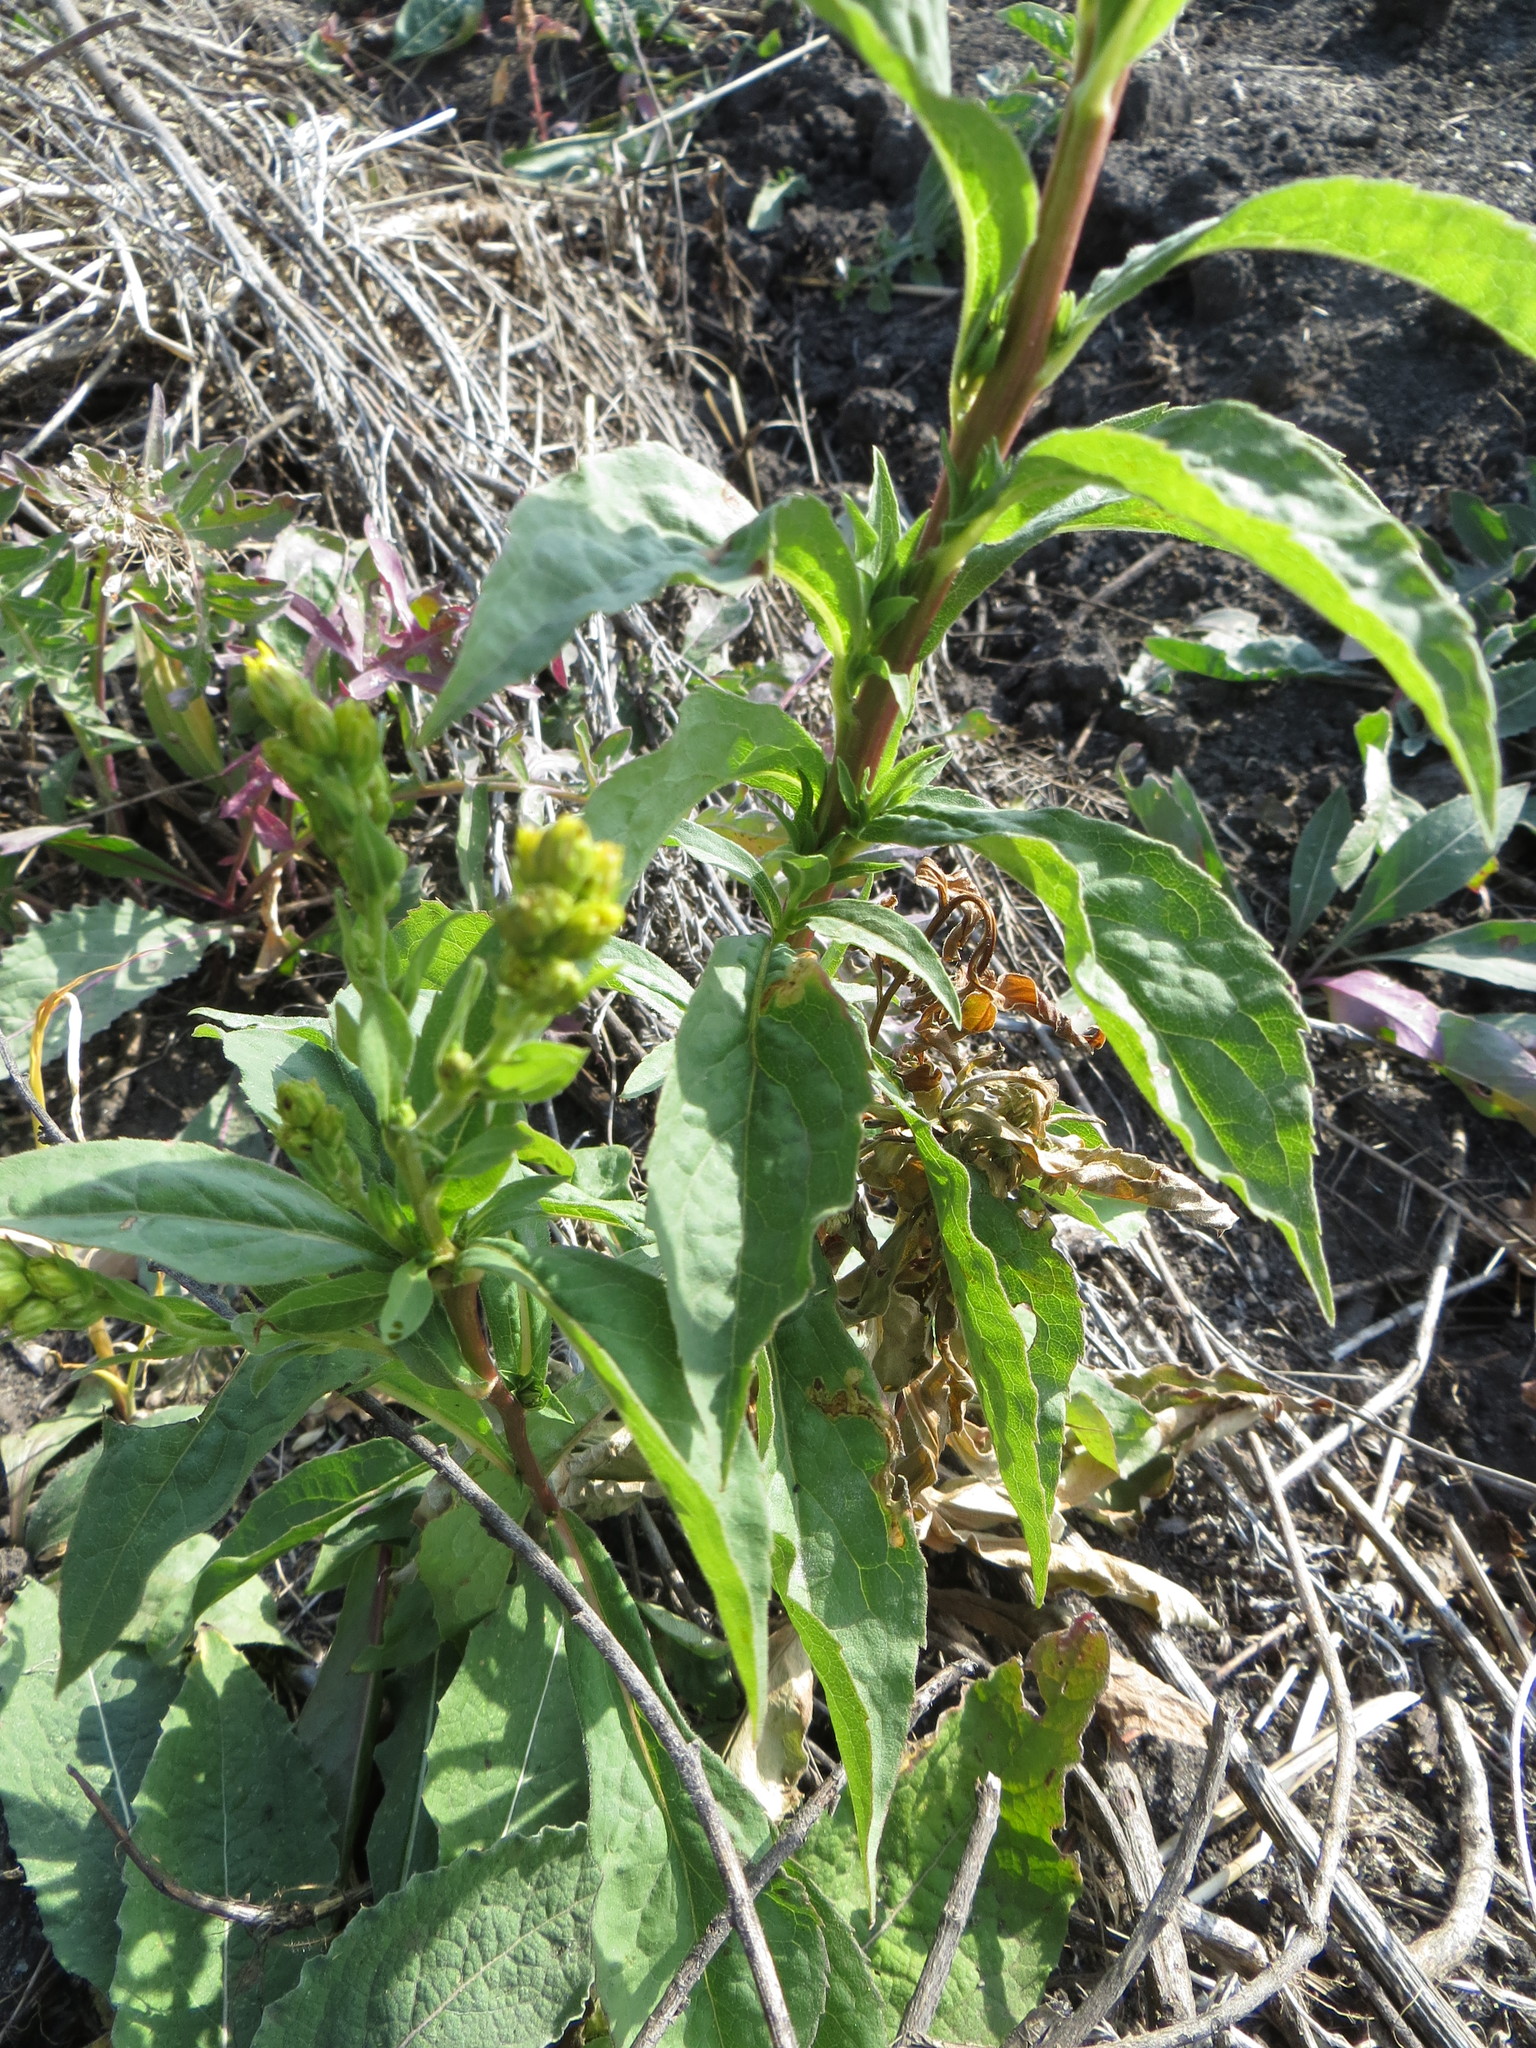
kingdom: Plantae
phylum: Tracheophyta
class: Magnoliopsida
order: Asterales
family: Asteraceae
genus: Solidago
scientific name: Solidago virgaurea
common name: Goldenrod
